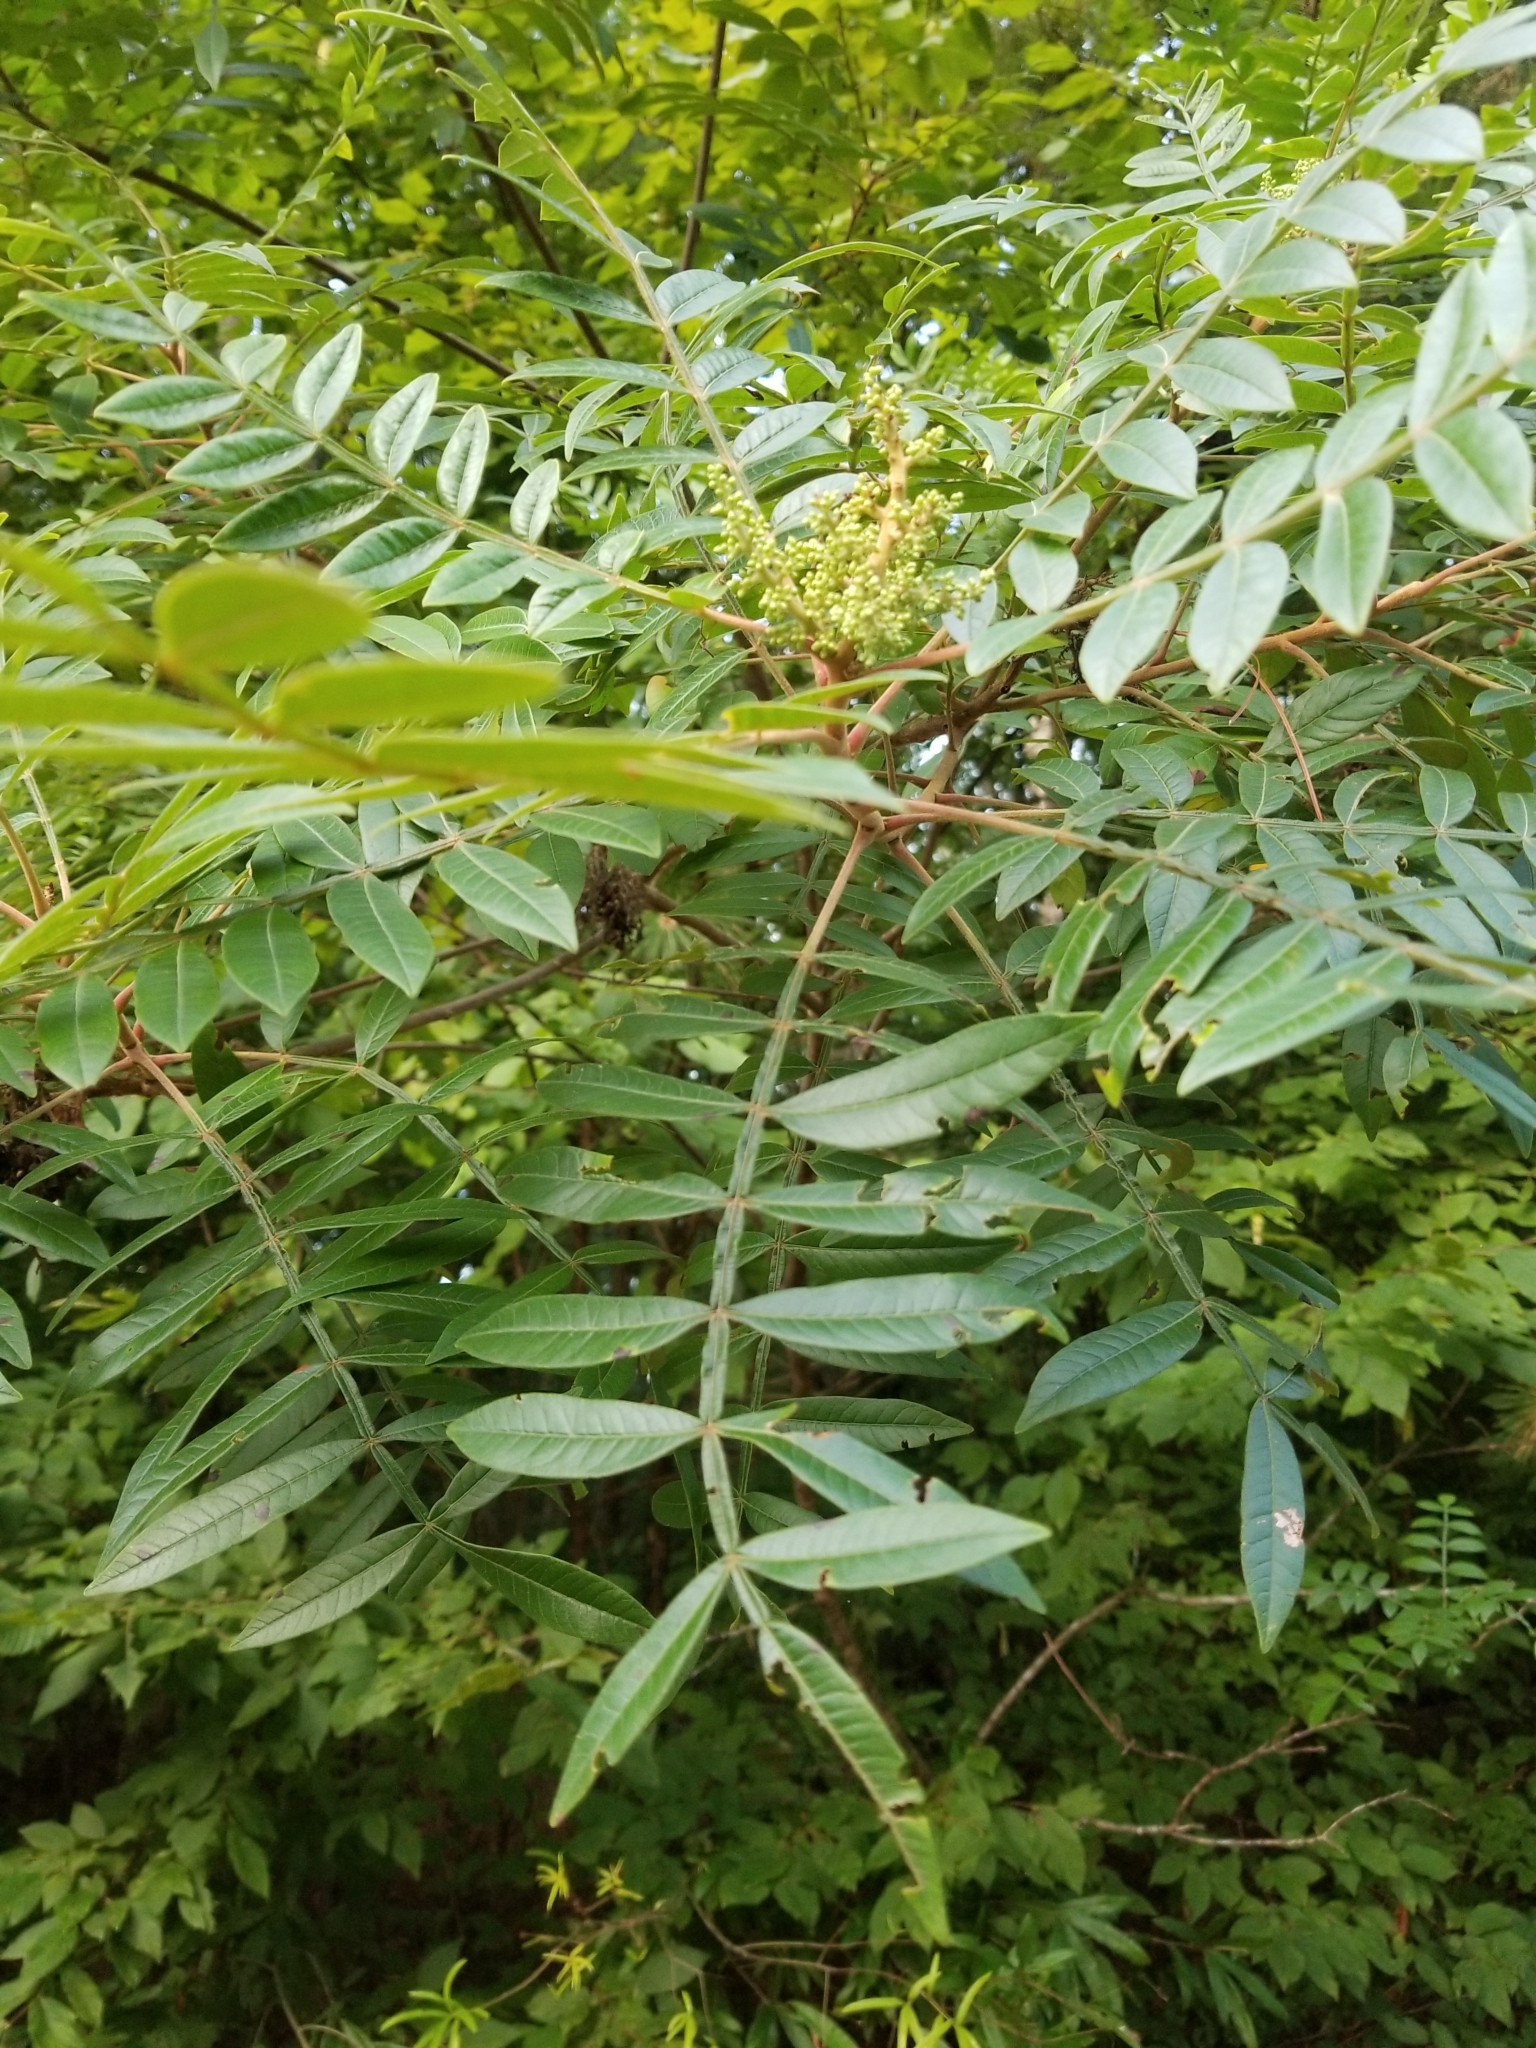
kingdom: Plantae
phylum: Tracheophyta
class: Magnoliopsida
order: Sapindales
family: Anacardiaceae
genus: Rhus
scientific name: Rhus copallina
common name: Shining sumac
